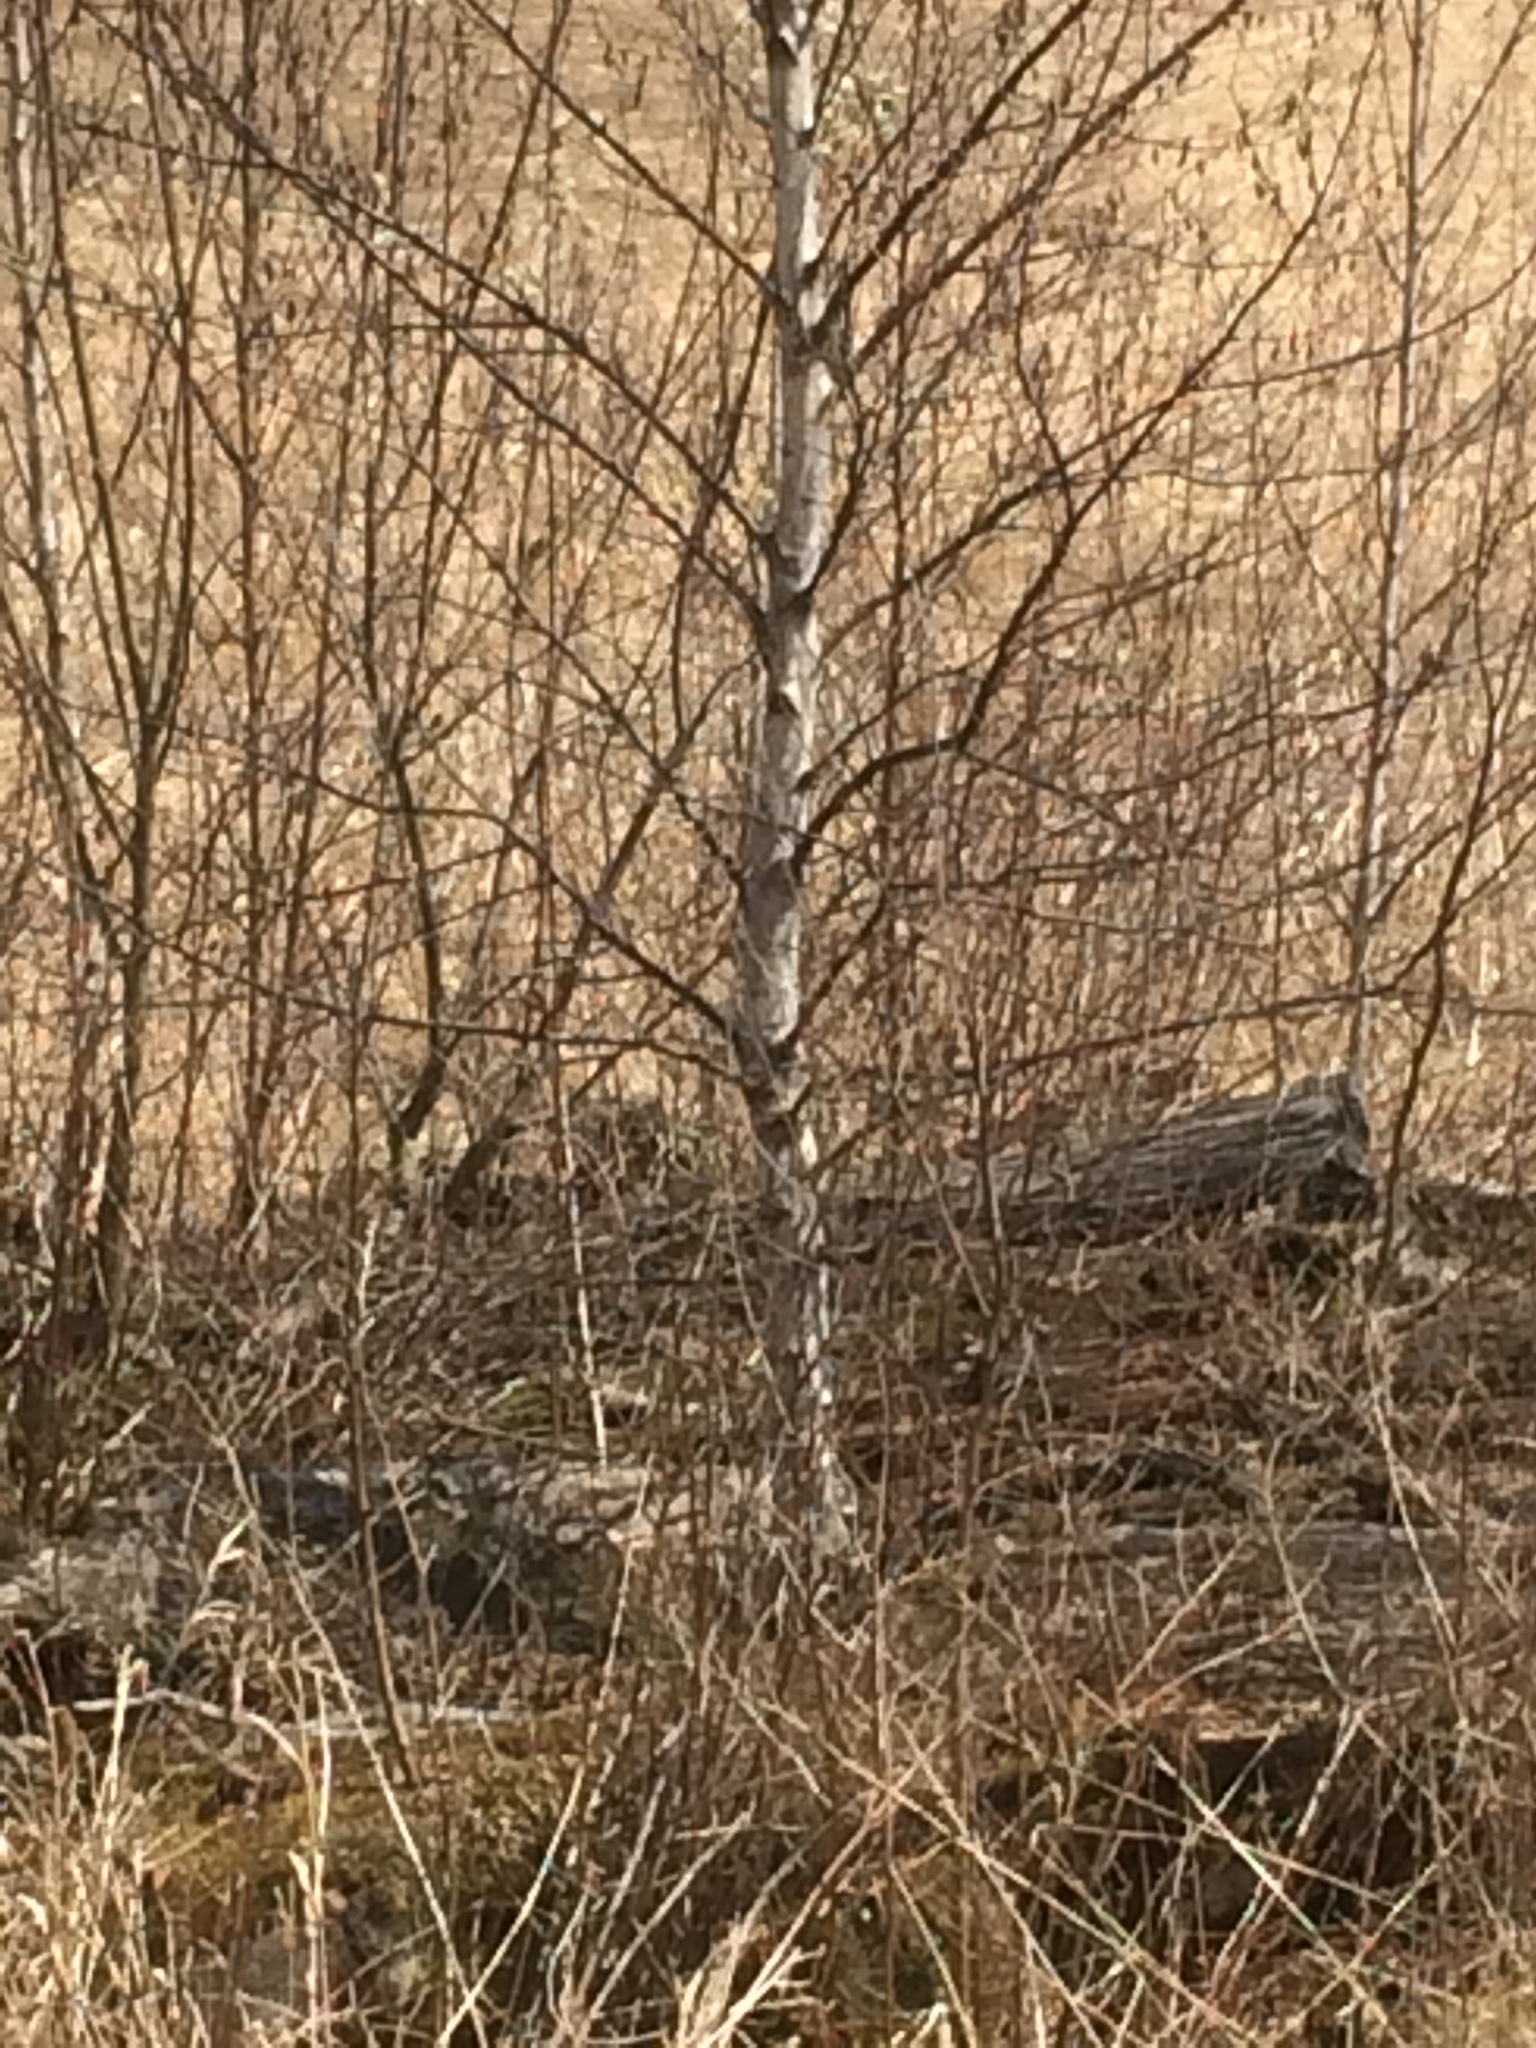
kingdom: Plantae
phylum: Tracheophyta
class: Magnoliopsida
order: Fagales
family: Betulaceae
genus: Betula
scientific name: Betula populifolia
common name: Fire birch
